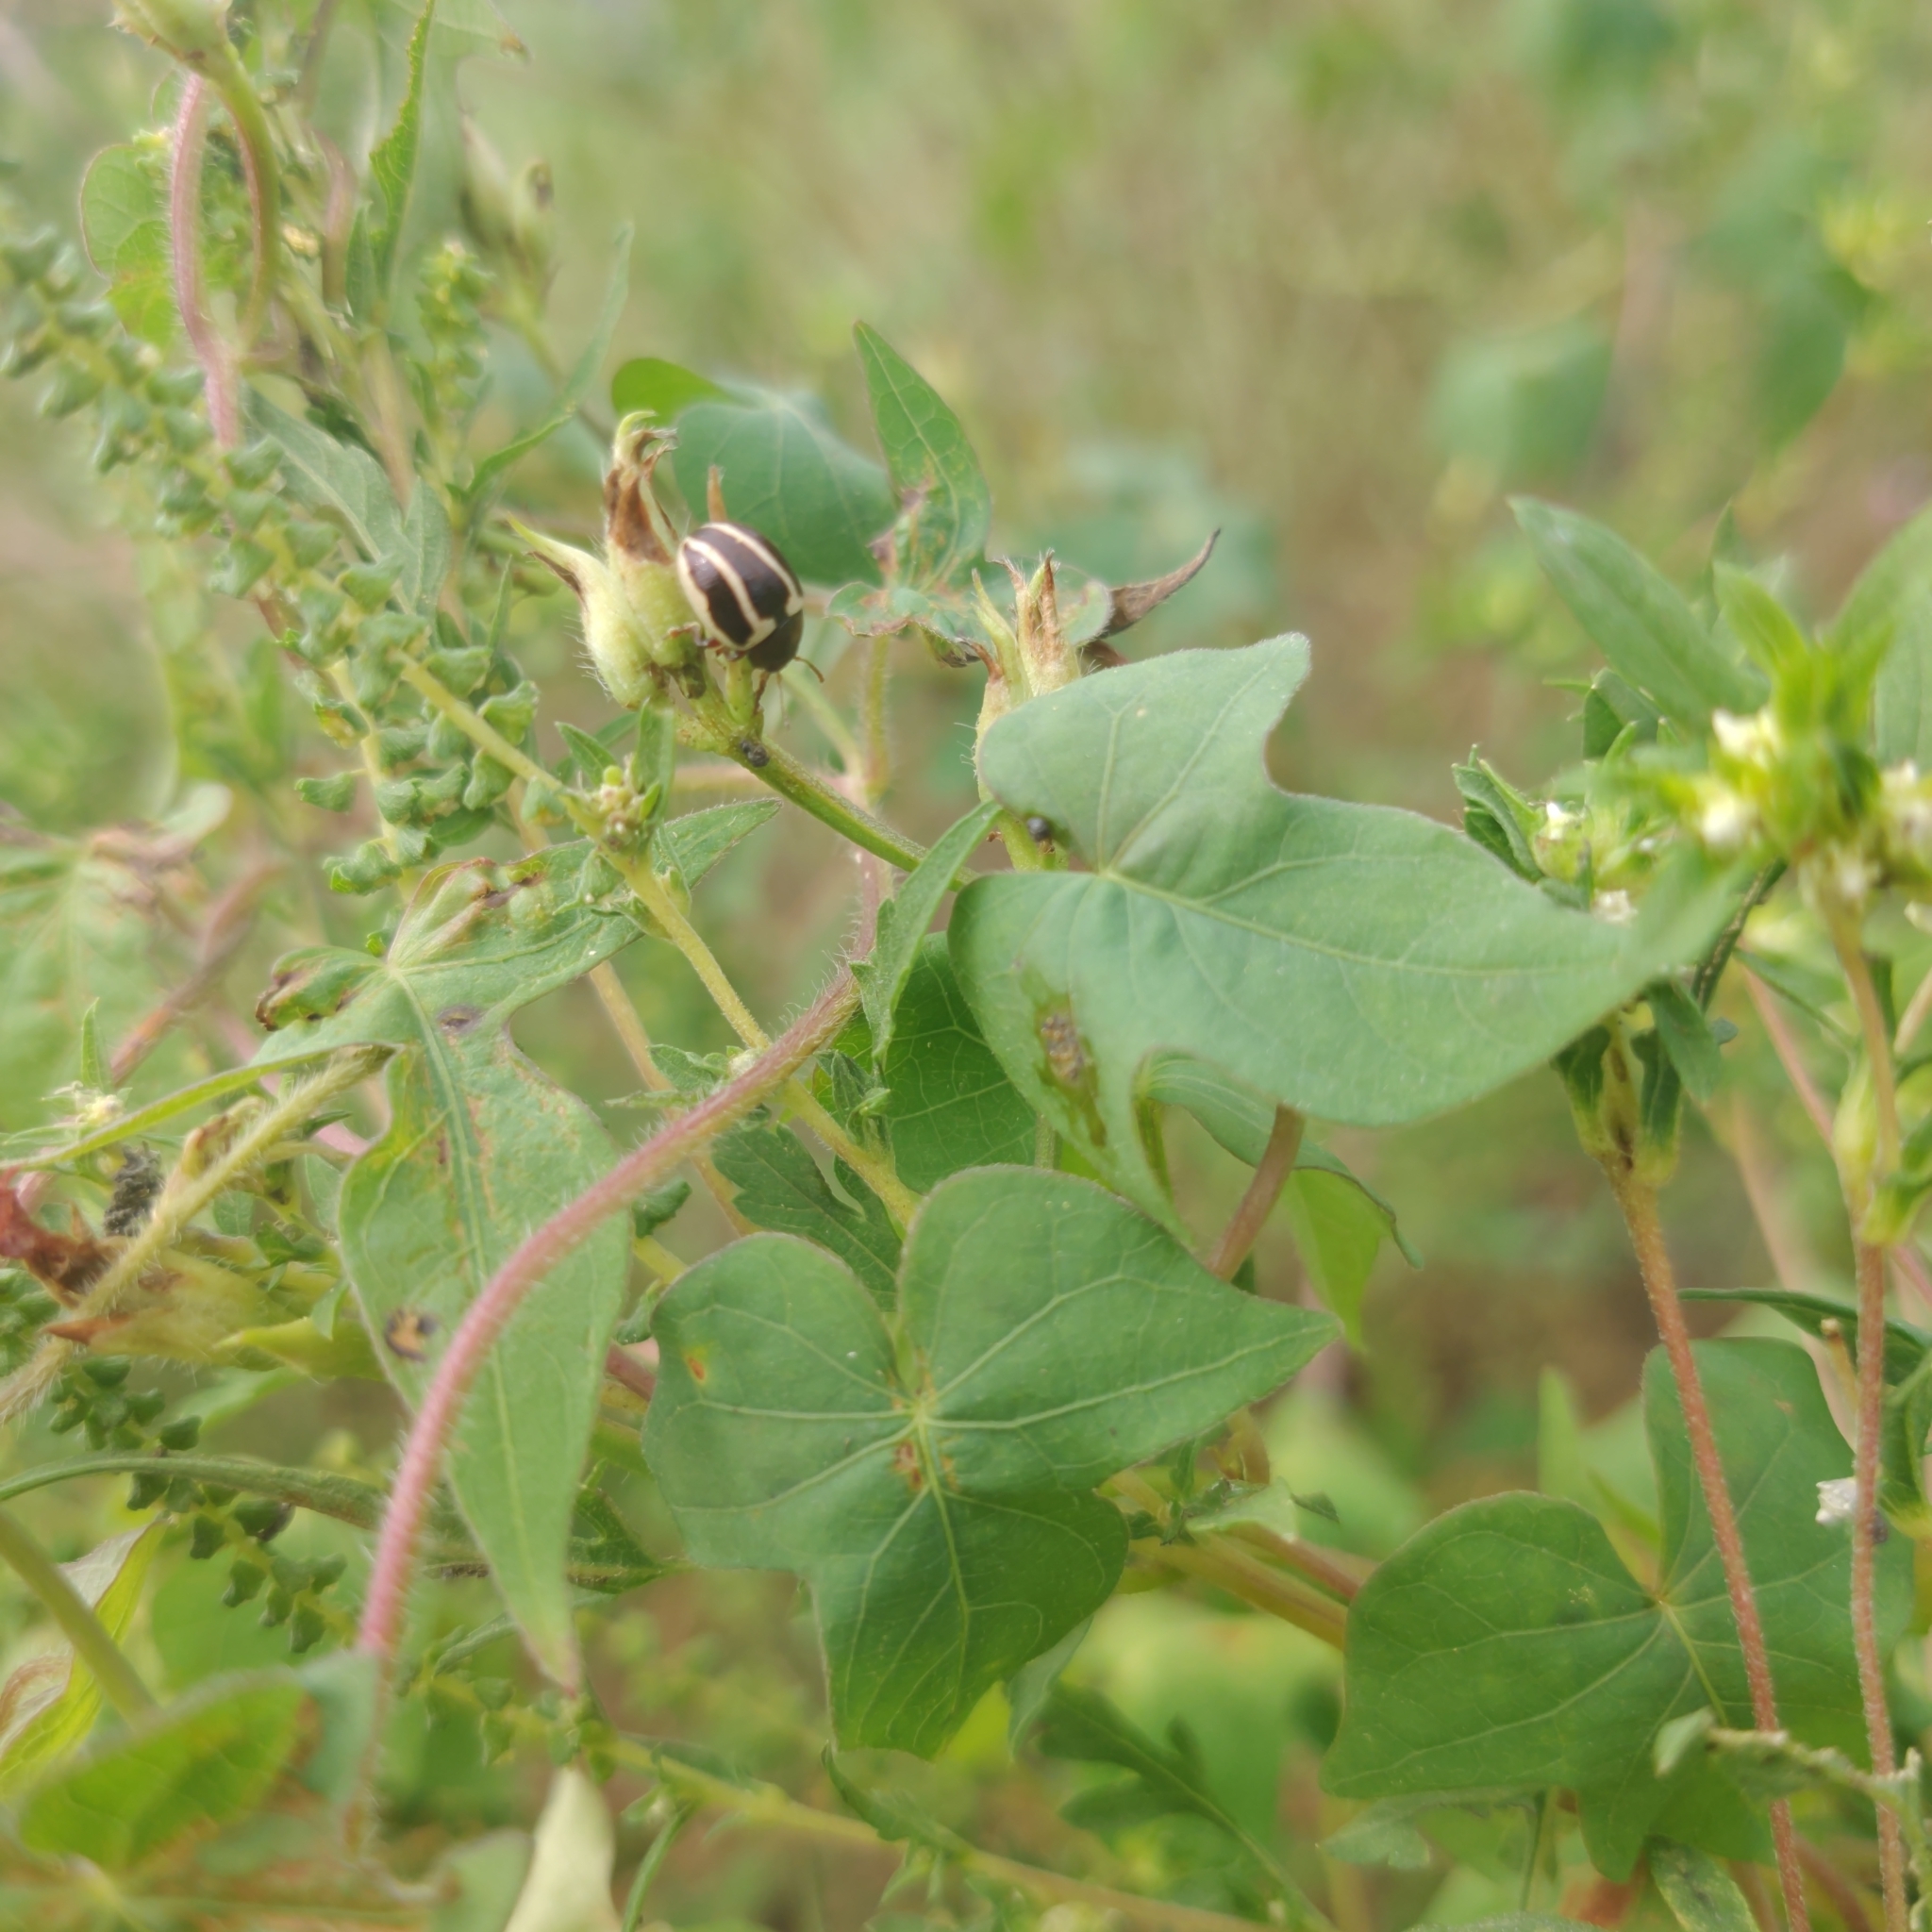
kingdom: Animalia
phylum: Arthropoda
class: Insecta
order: Coleoptera
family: Chrysomelidae
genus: Calligrapha
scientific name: Calligrapha
